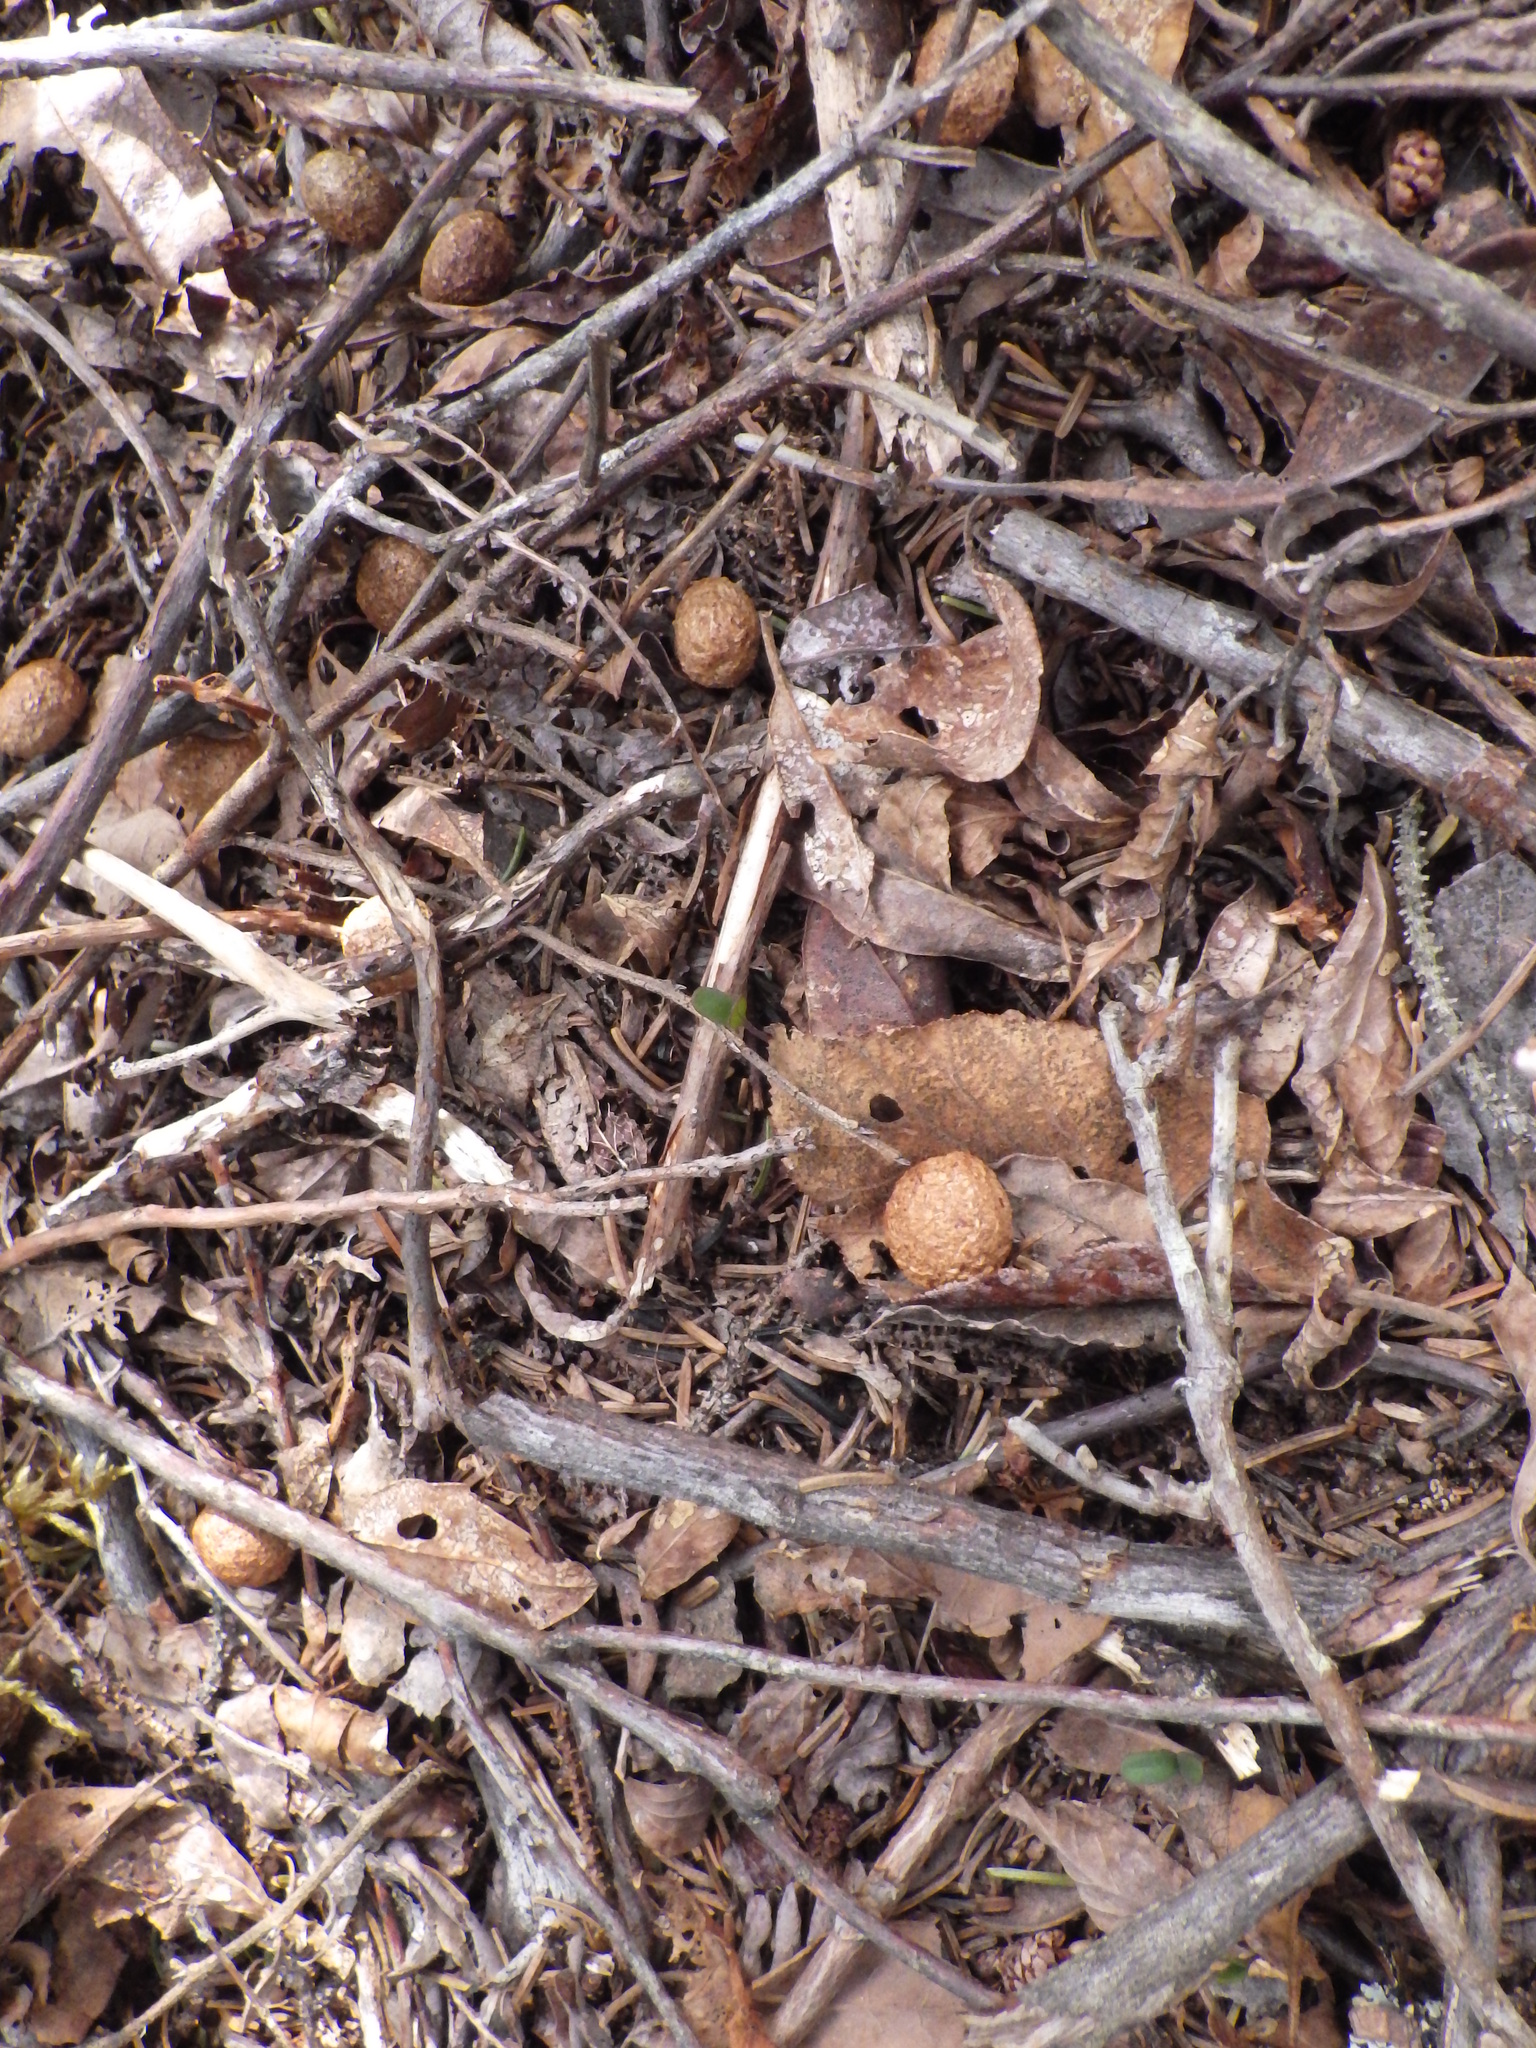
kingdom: Animalia
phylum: Chordata
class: Mammalia
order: Lagomorpha
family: Leporidae
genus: Lepus
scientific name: Lepus americanus
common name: Snowshoe hare
